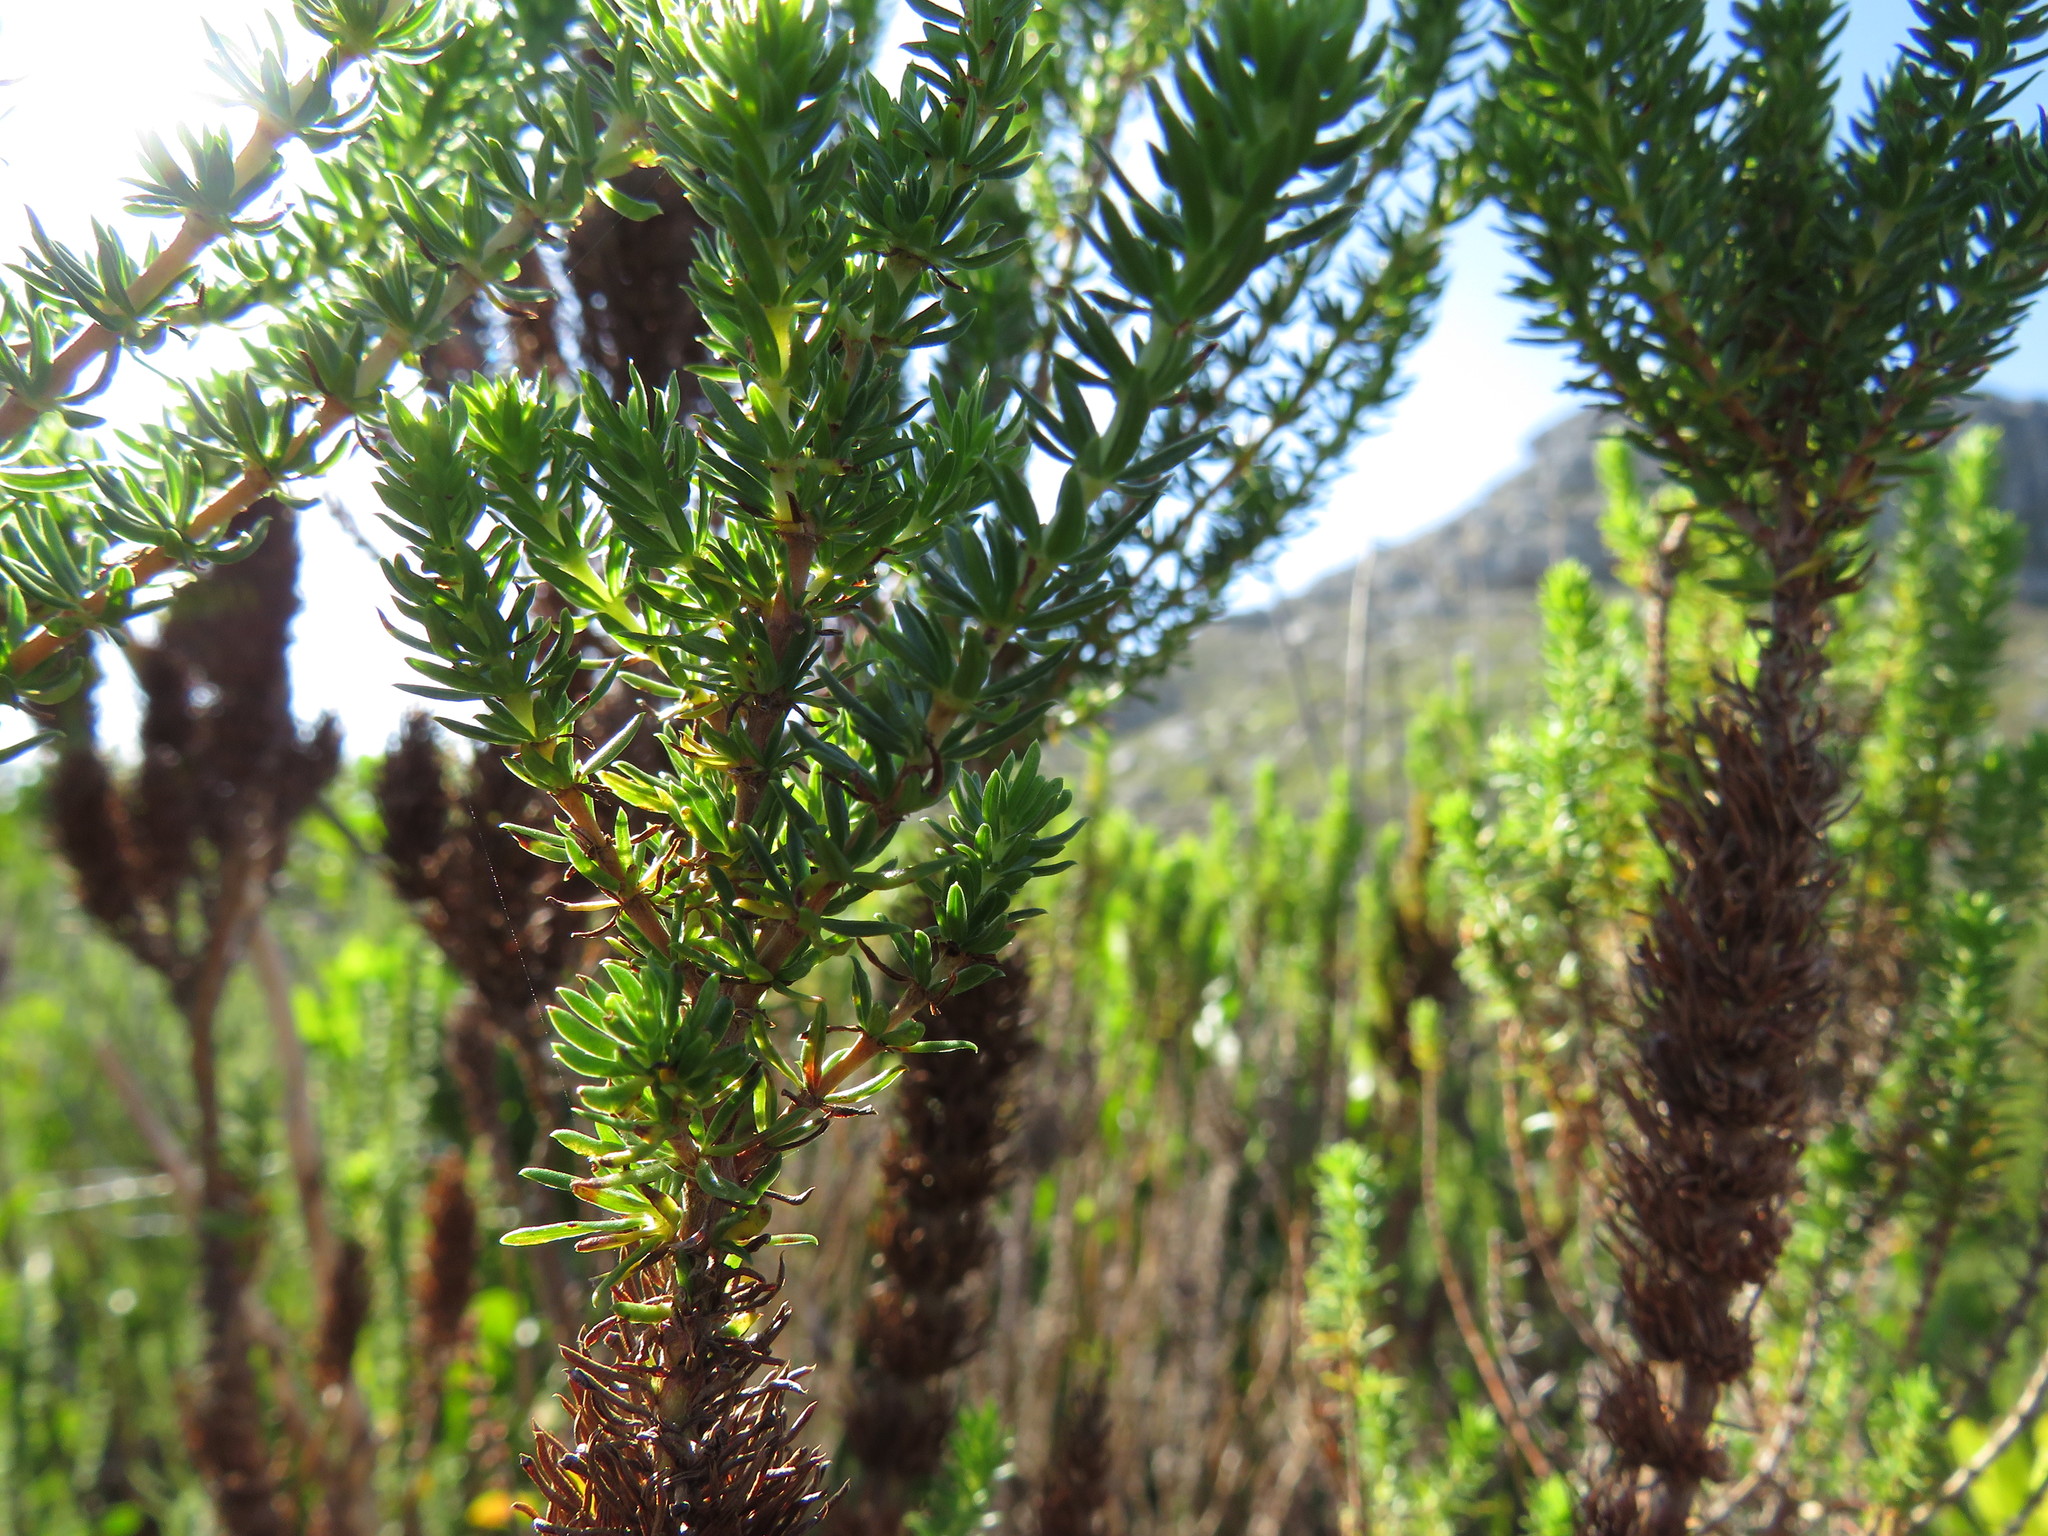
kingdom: Plantae
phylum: Tracheophyta
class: Magnoliopsida
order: Gentianales
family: Rubiaceae
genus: Anthospermum
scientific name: Anthospermum aethiopicum
